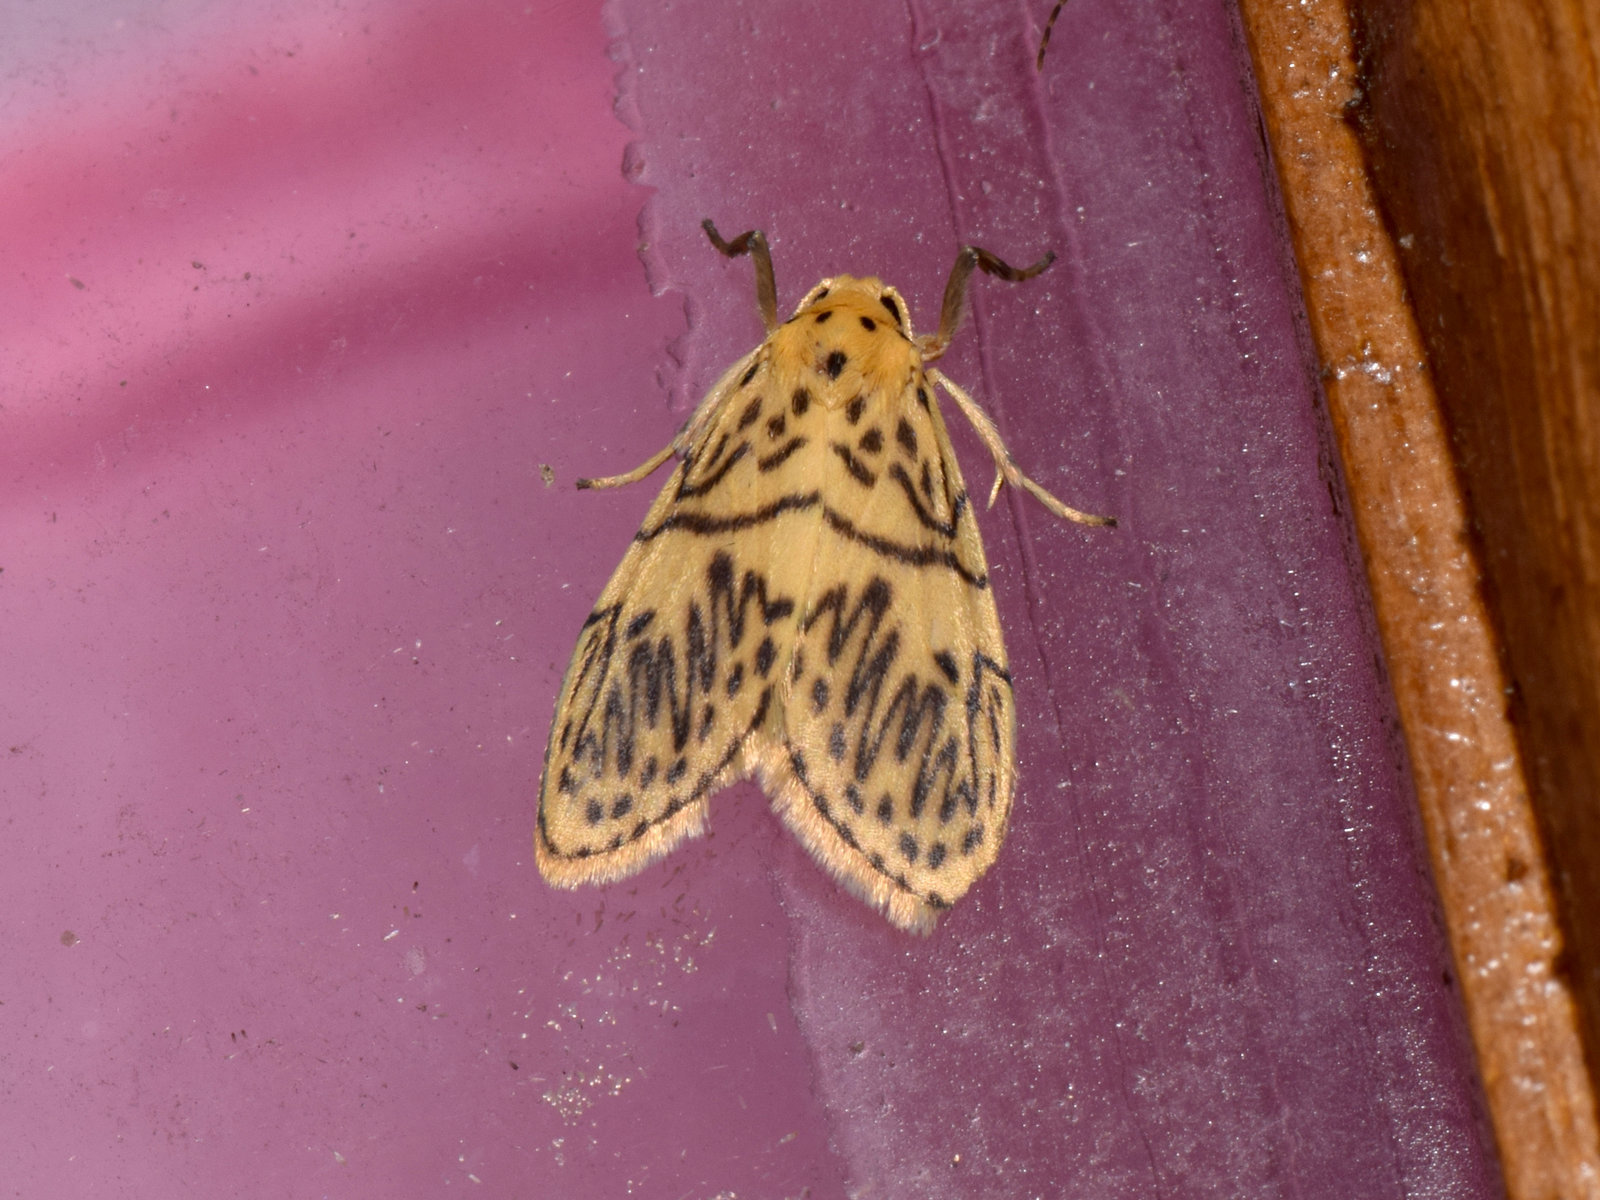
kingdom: Animalia
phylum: Arthropoda
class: Insecta
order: Lepidoptera
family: Erebidae
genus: Pseudobarsine
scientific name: Pseudobarsine bombdilensis
